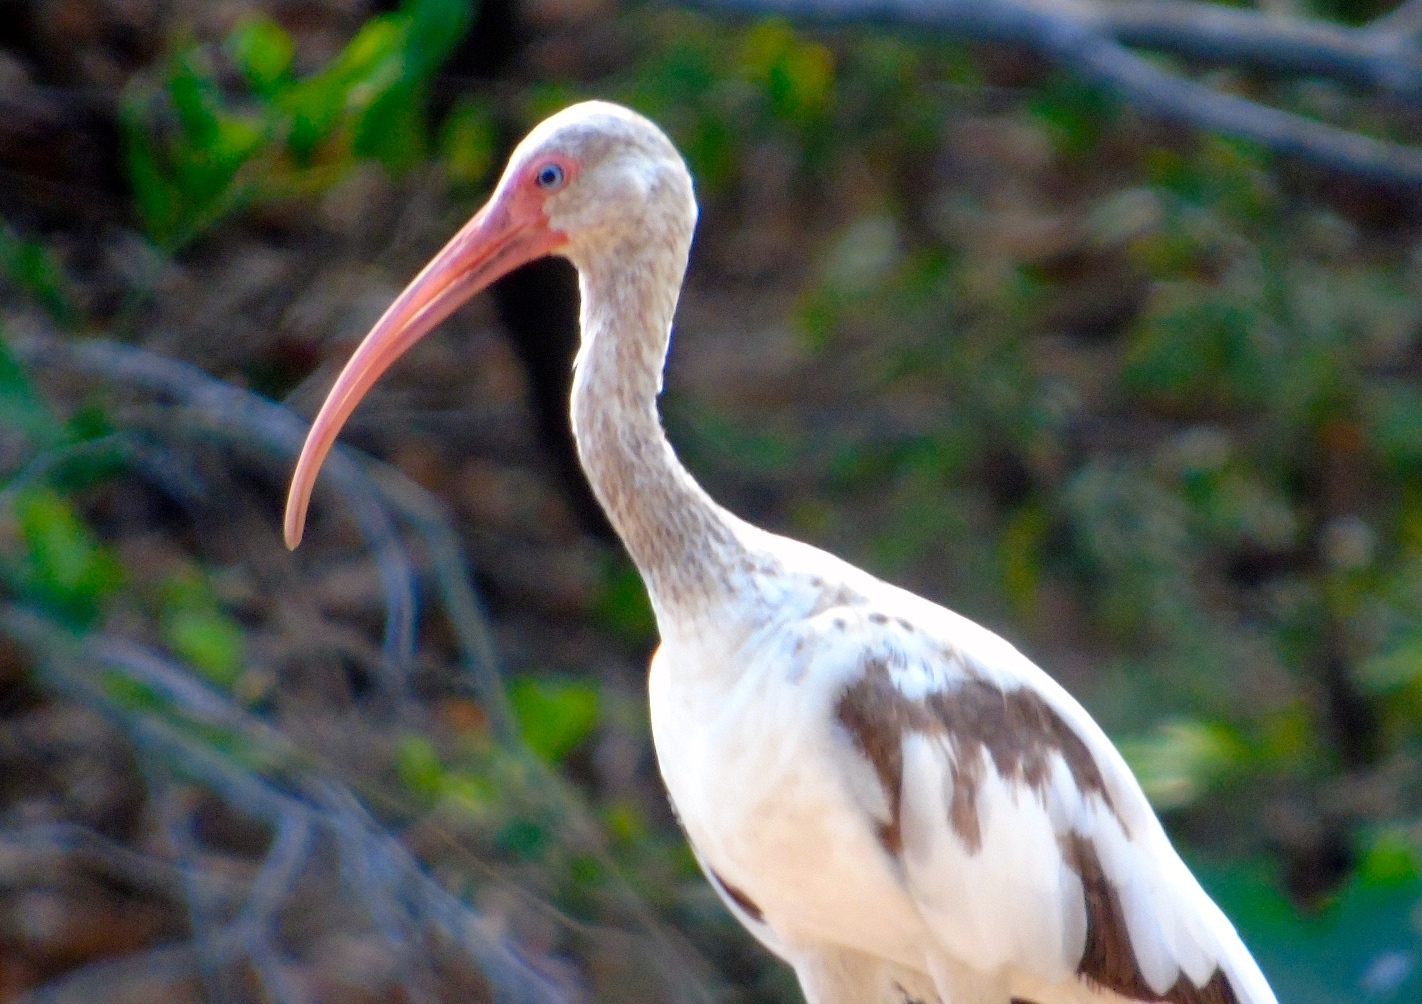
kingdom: Animalia
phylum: Chordata
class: Aves
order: Pelecaniformes
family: Threskiornithidae
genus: Eudocimus
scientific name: Eudocimus albus
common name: White ibis
